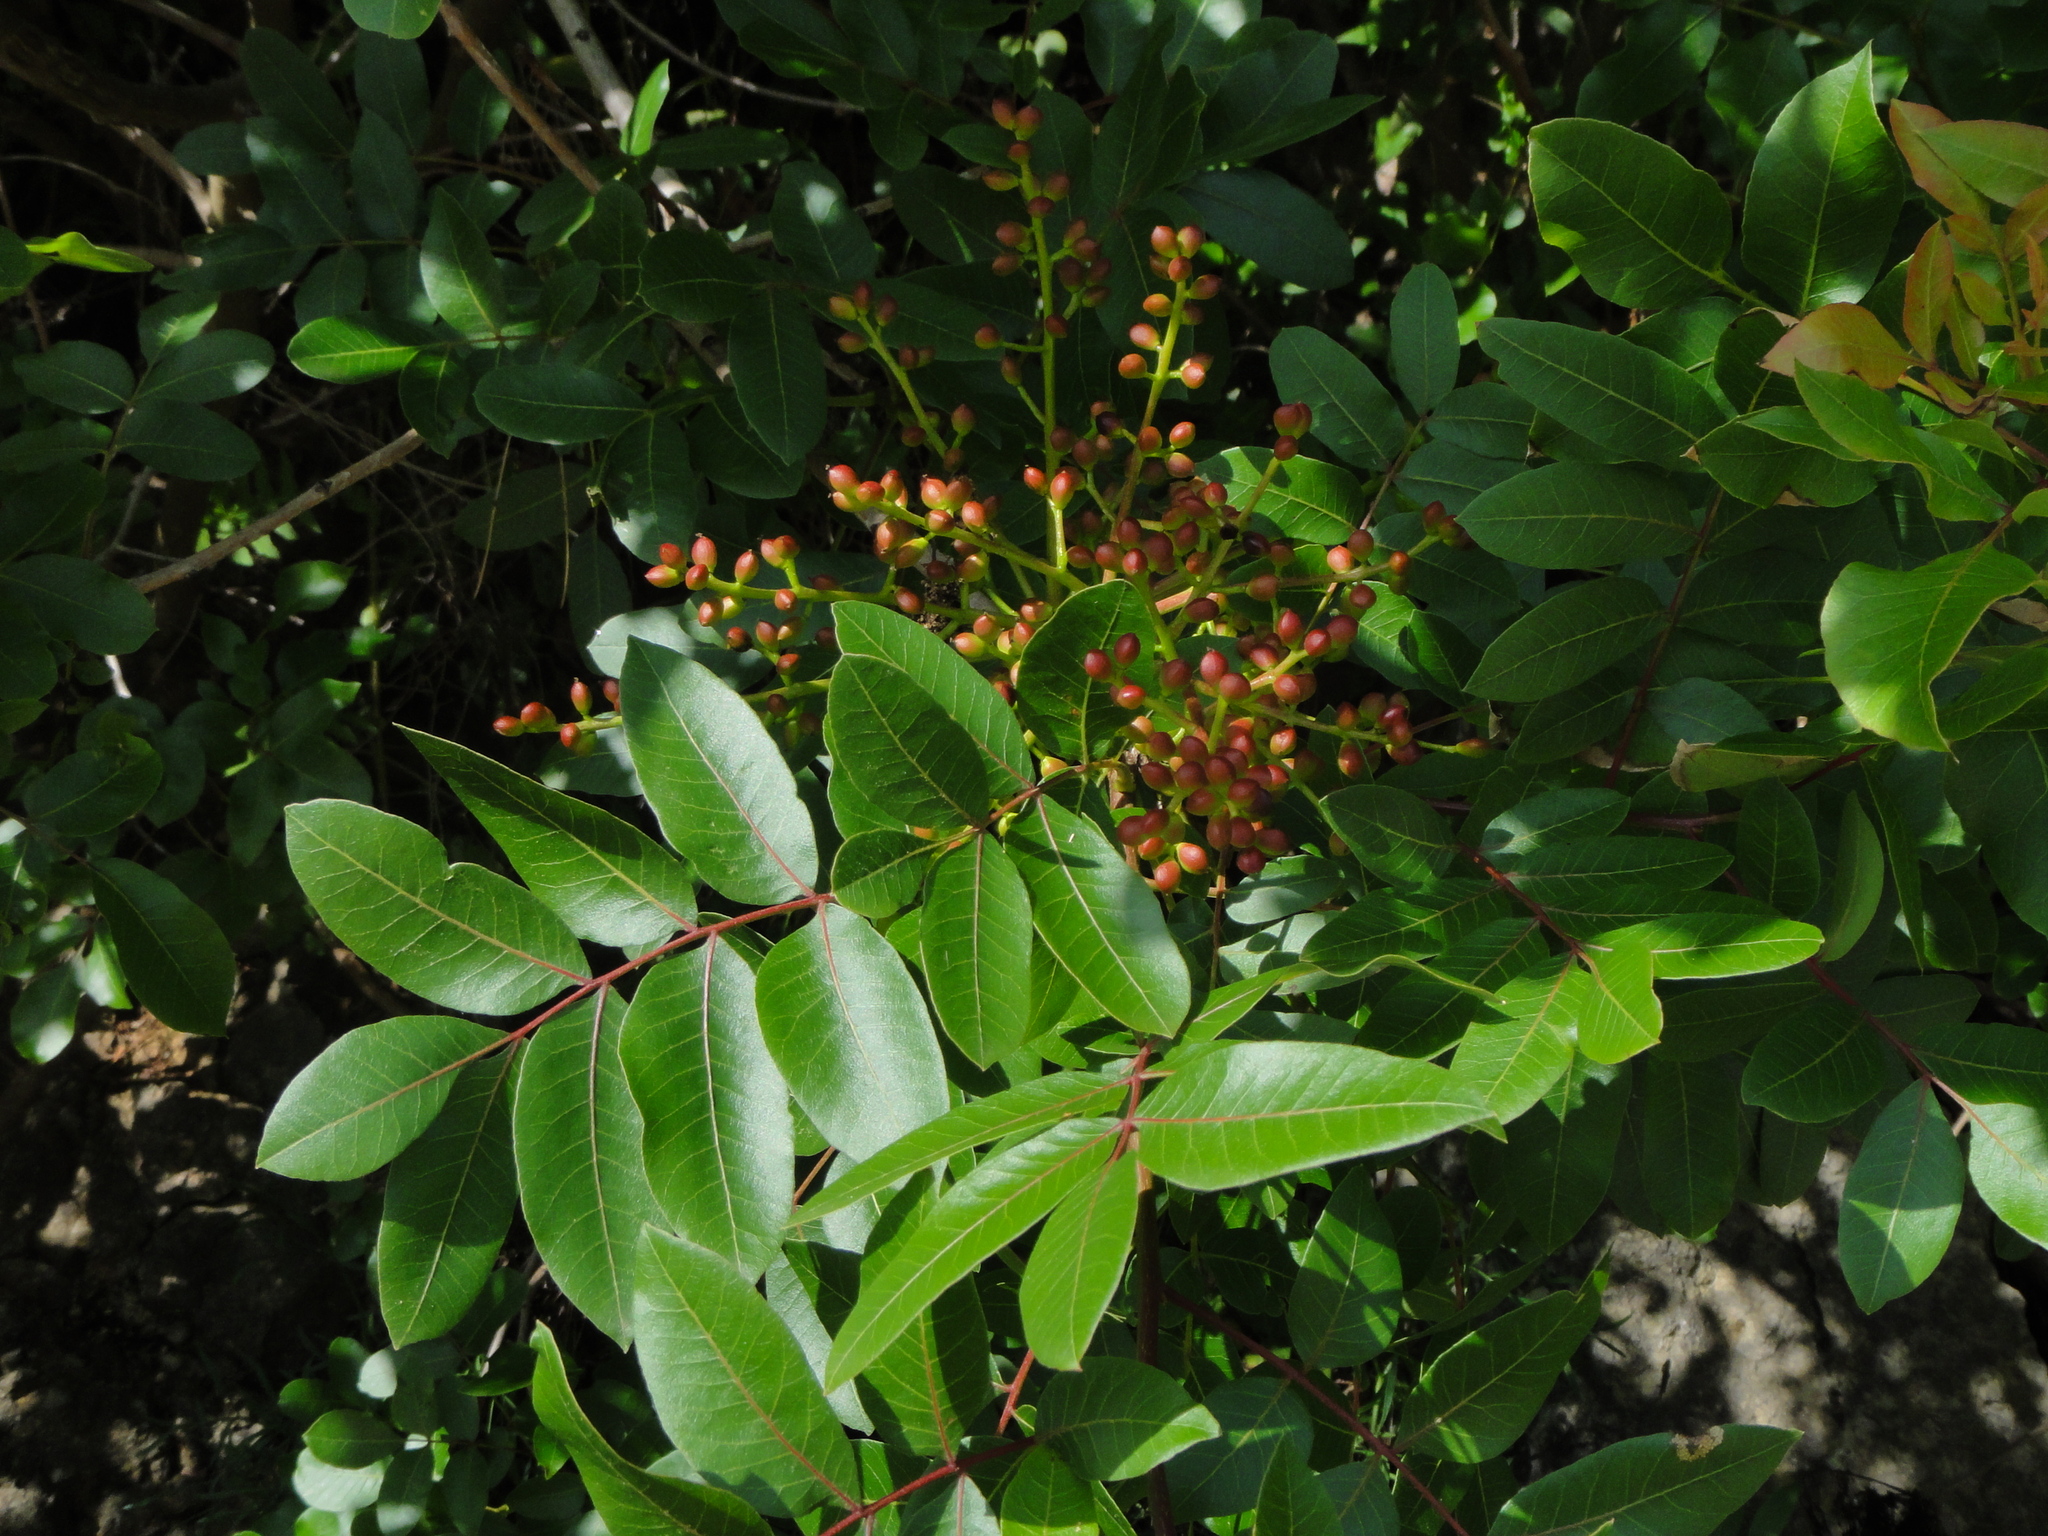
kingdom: Plantae
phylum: Tracheophyta
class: Magnoliopsida
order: Sapindales
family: Anacardiaceae
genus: Pistacia
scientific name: Pistacia terebinthus
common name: Terebinth
